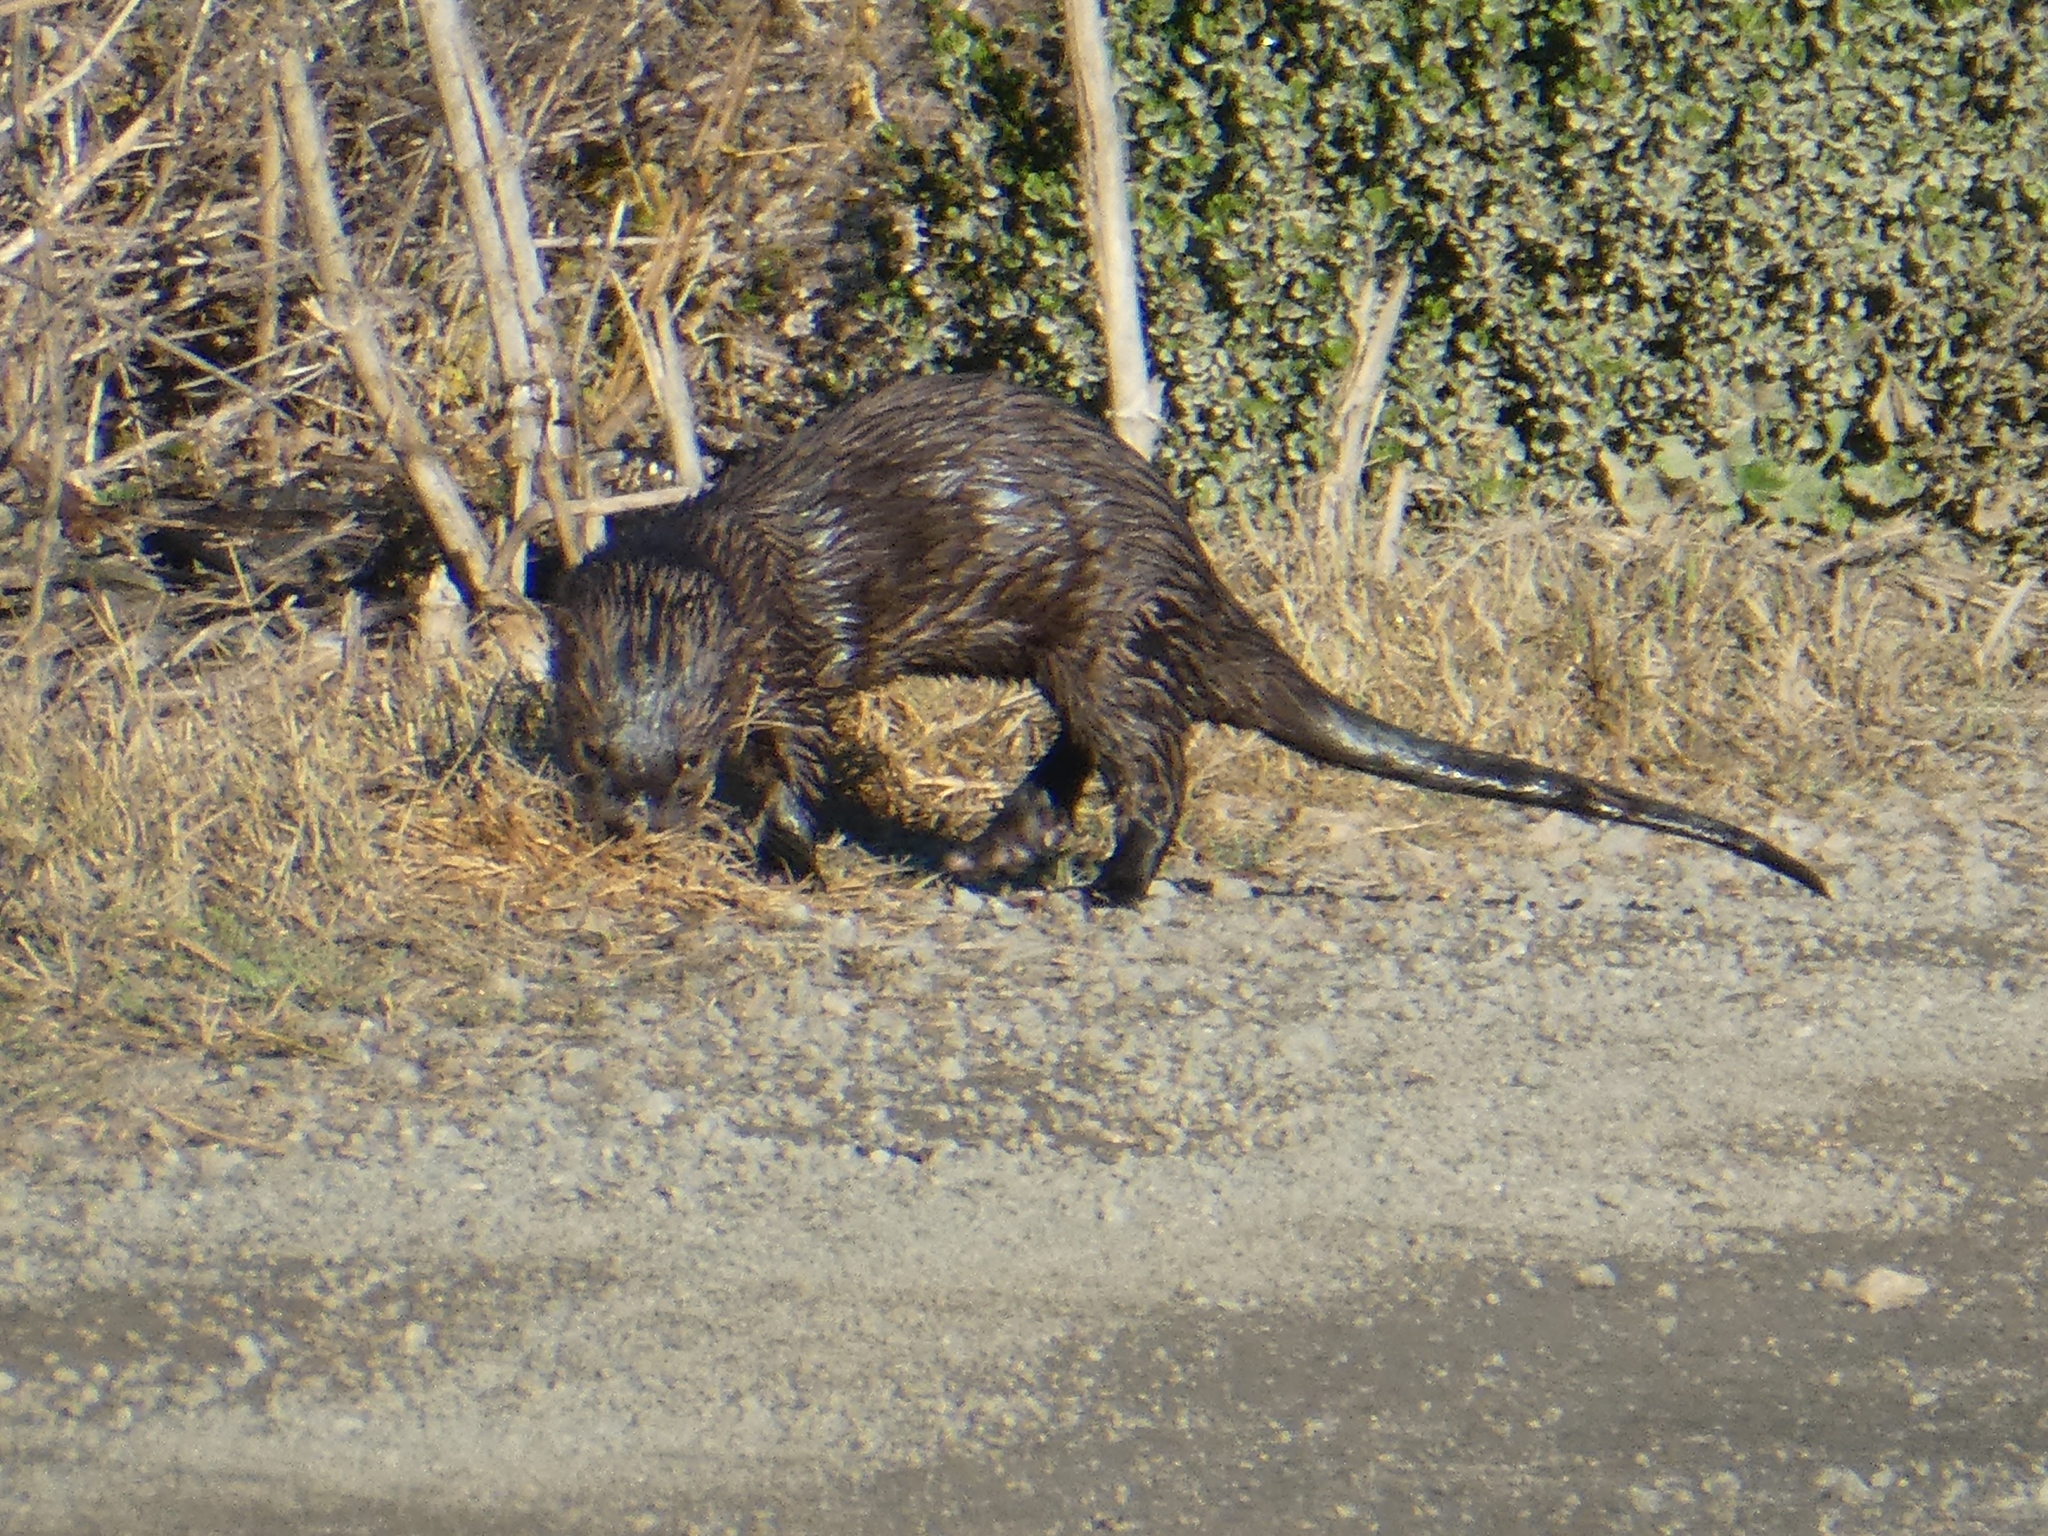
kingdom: Animalia
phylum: Chordata
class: Mammalia
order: Carnivora
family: Mustelidae
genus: Lontra
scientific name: Lontra canadensis
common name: North american river otter
